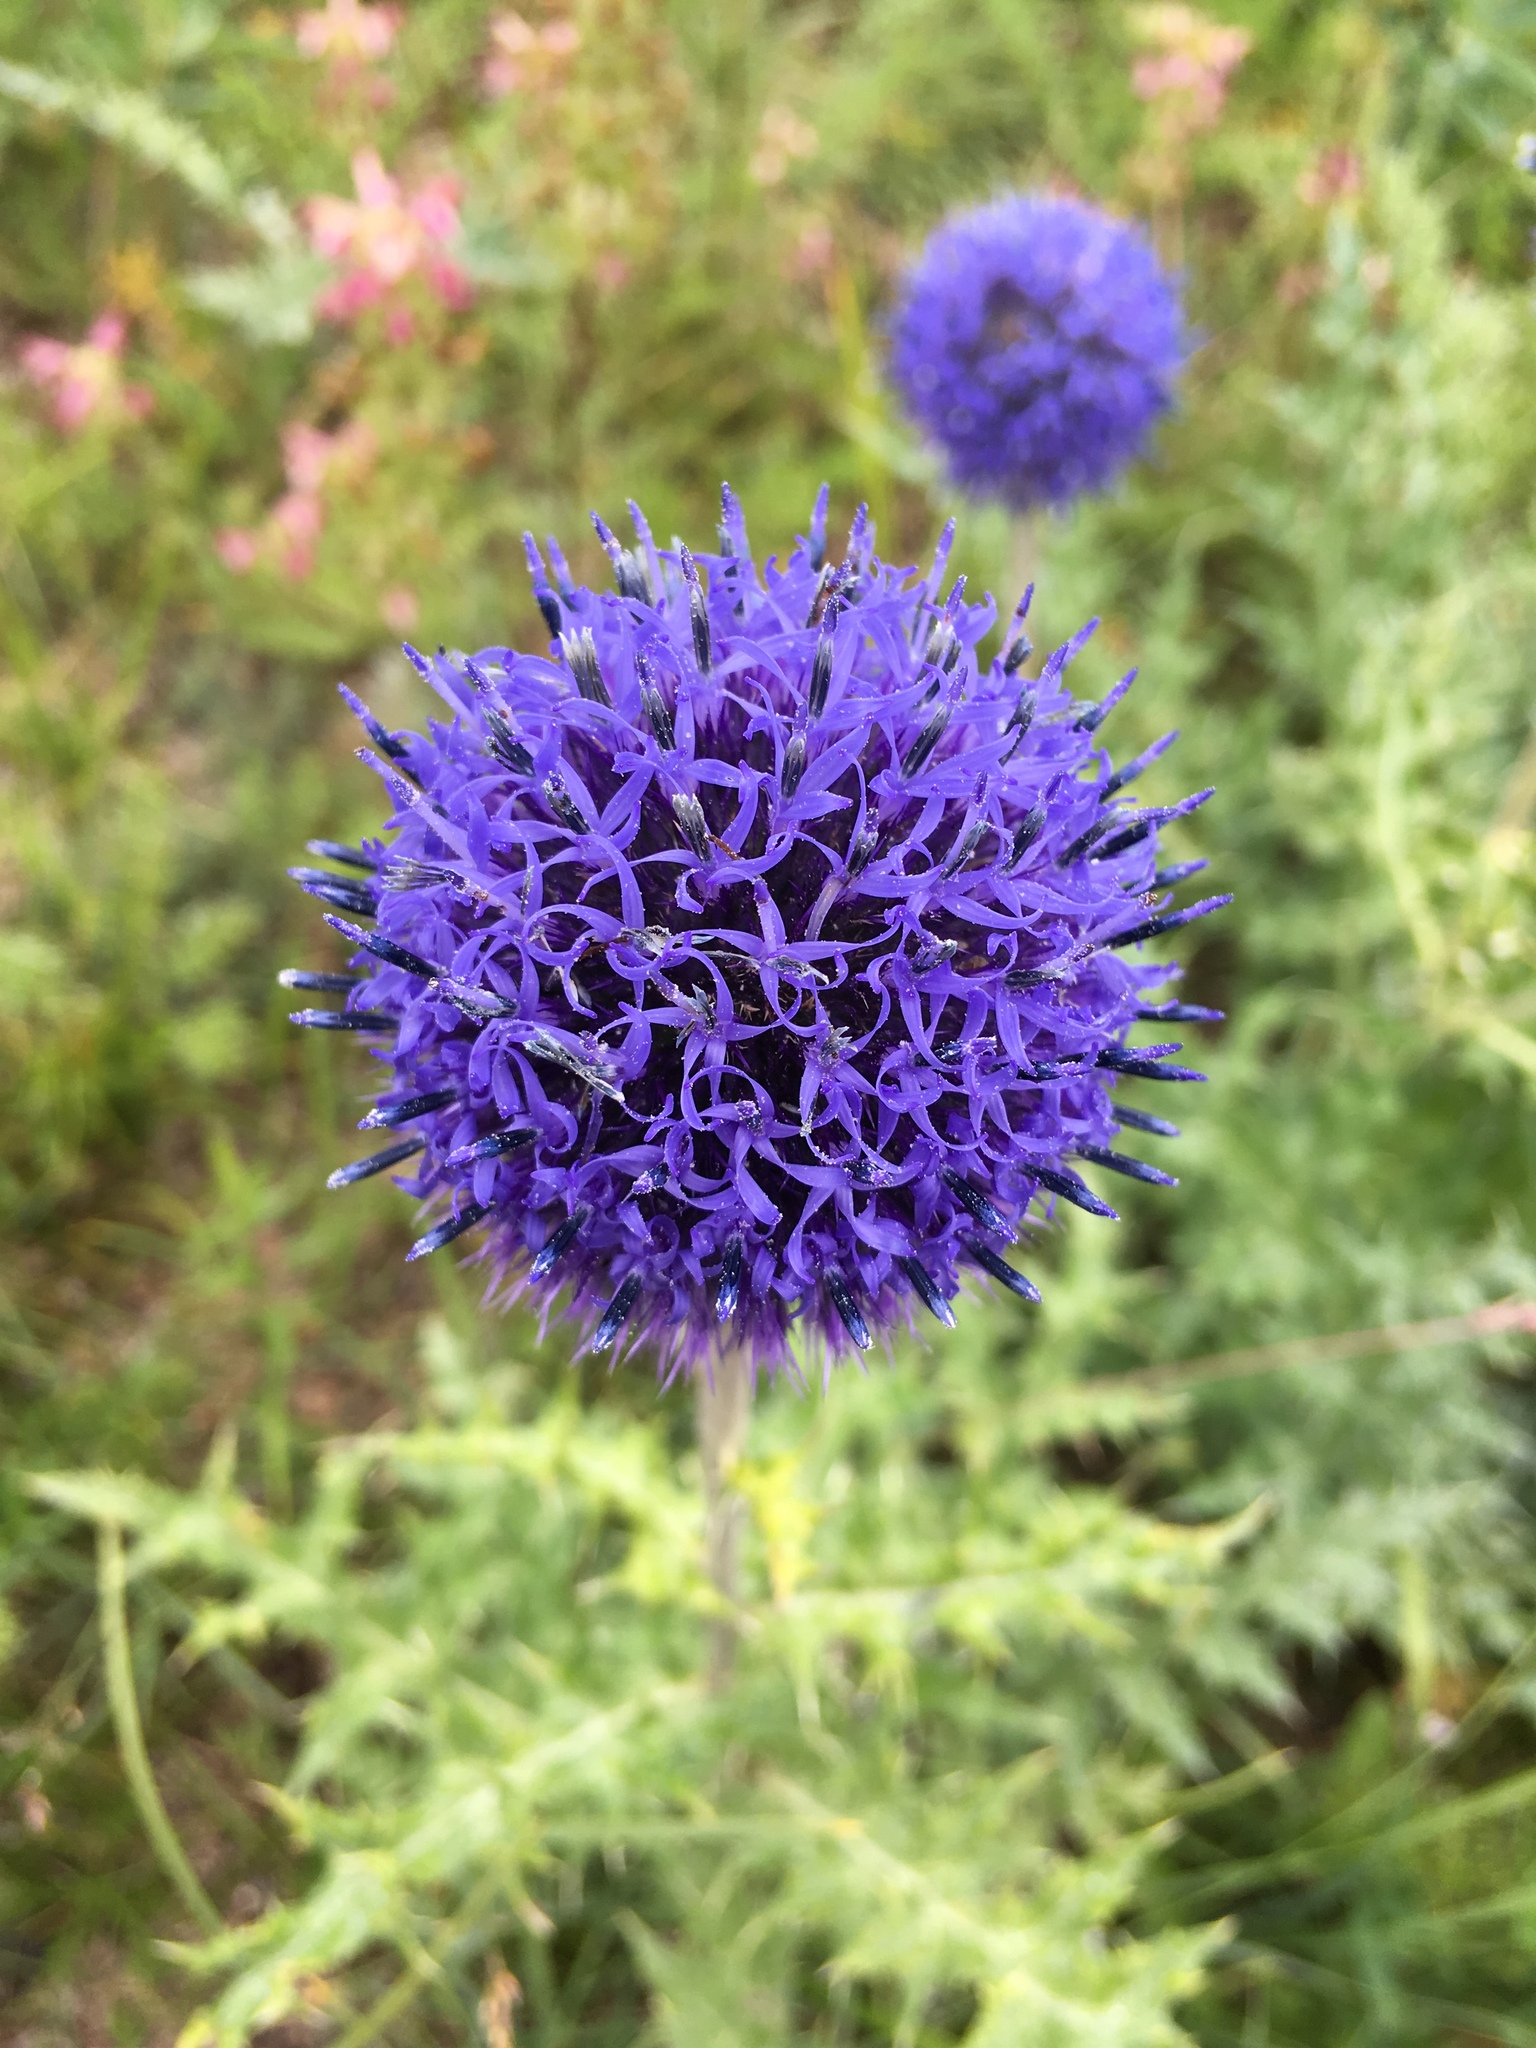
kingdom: Plantae
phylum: Tracheophyta
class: Magnoliopsida
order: Asterales
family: Asteraceae
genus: Echinops
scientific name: Echinops davuricus
